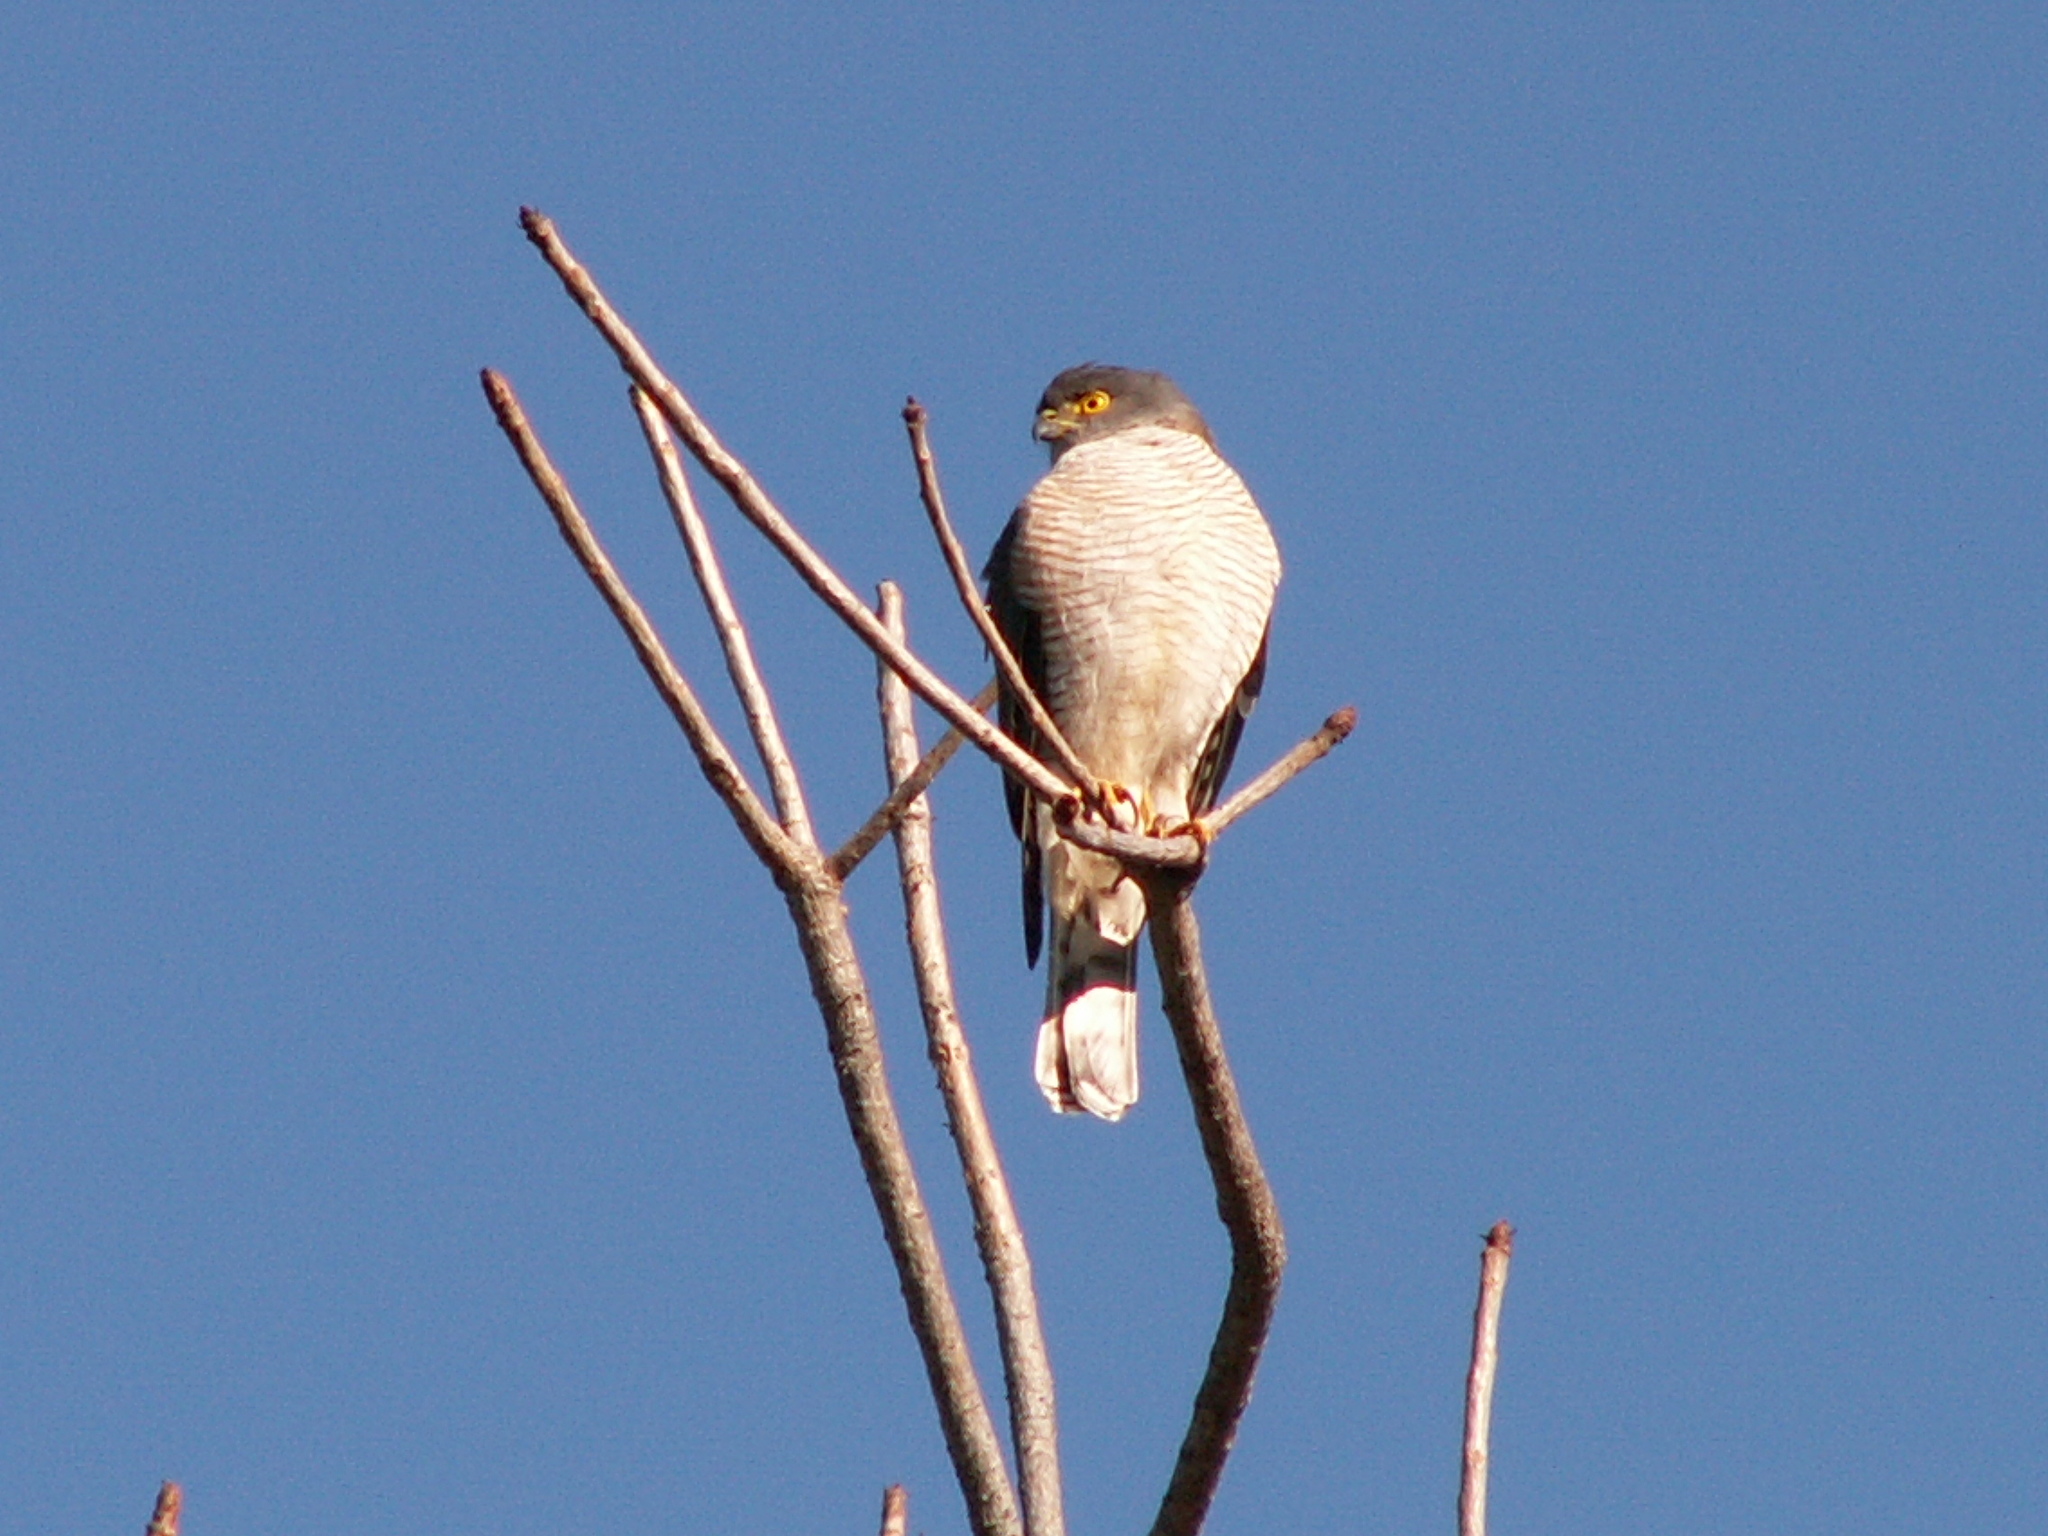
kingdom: Animalia
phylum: Chordata
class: Aves
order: Accipitriformes
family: Accipitridae
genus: Accipiter
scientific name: Accipiter minullus
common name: Little sparrowhawk
